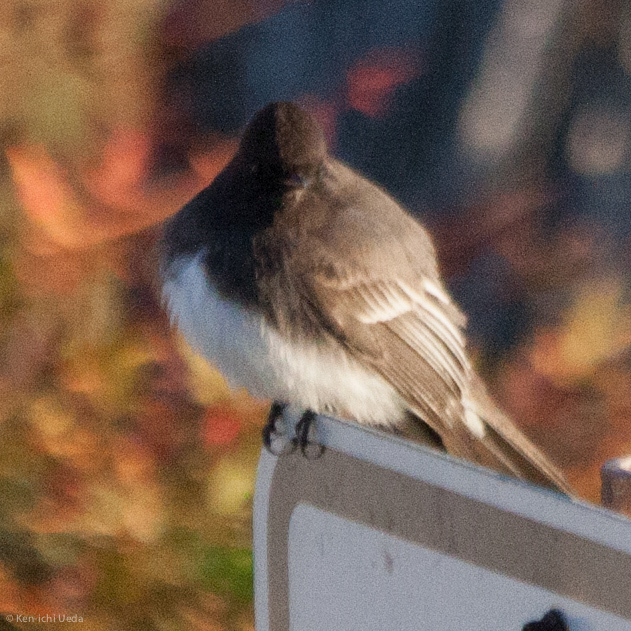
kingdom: Animalia
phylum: Chordata
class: Aves
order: Passeriformes
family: Tyrannidae
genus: Sayornis
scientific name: Sayornis nigricans
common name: Black phoebe
